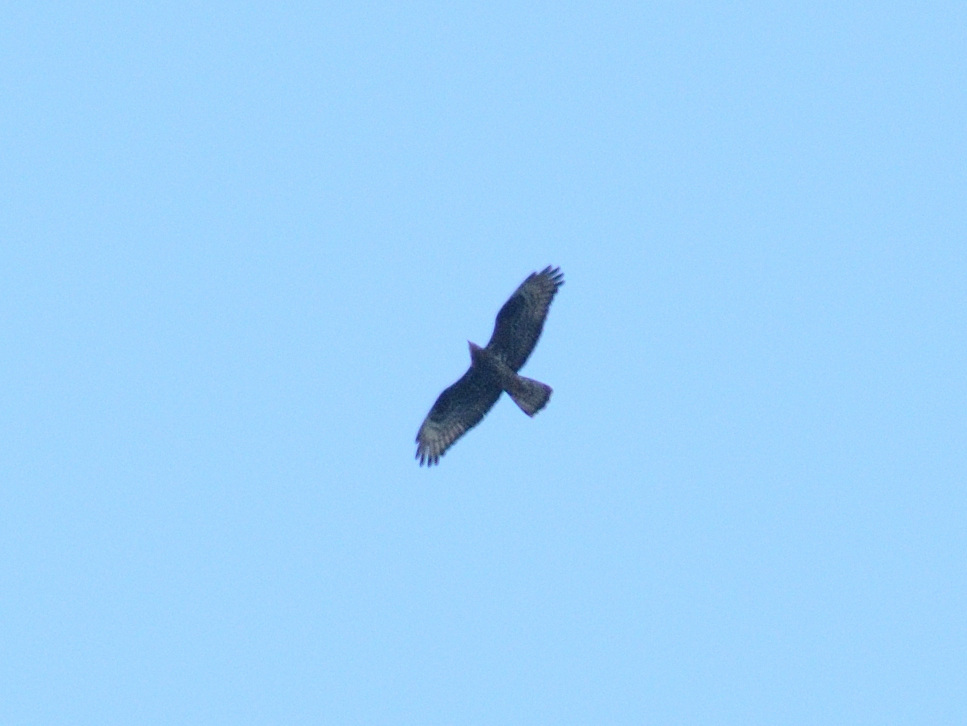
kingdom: Animalia
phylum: Chordata
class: Aves
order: Accipitriformes
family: Accipitridae
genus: Pernis
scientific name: Pernis apivorus
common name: European honey buzzard
